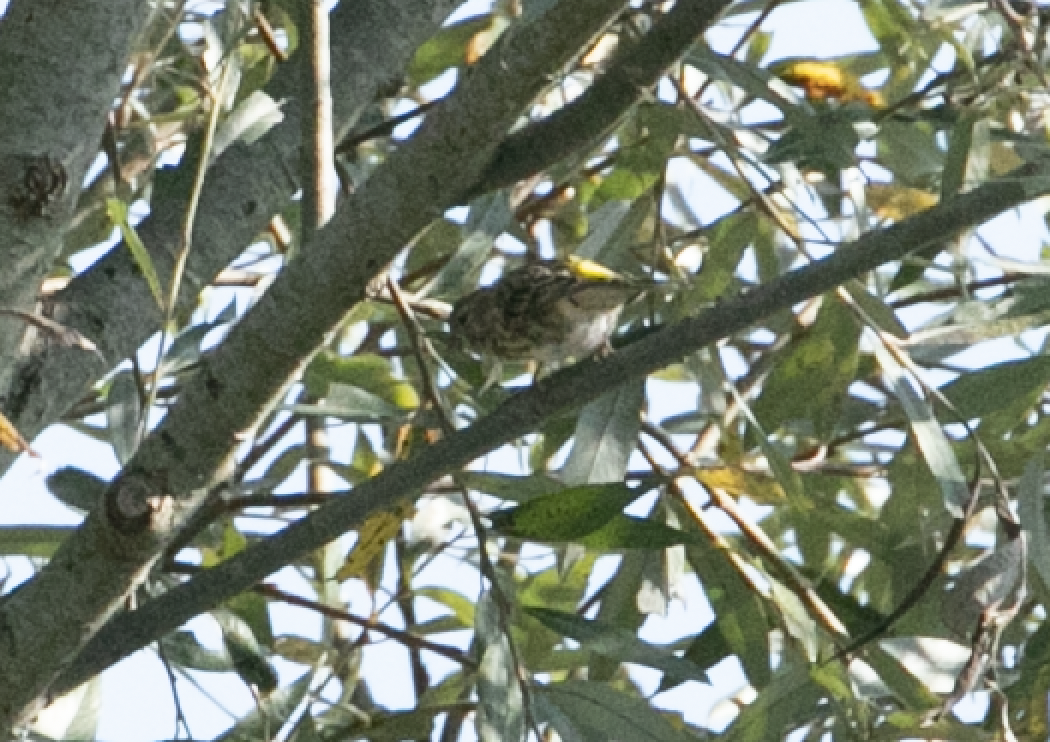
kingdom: Animalia
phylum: Chordata
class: Aves
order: Passeriformes
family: Fringillidae
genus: Serinus
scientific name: Serinus serinus
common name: European serin
